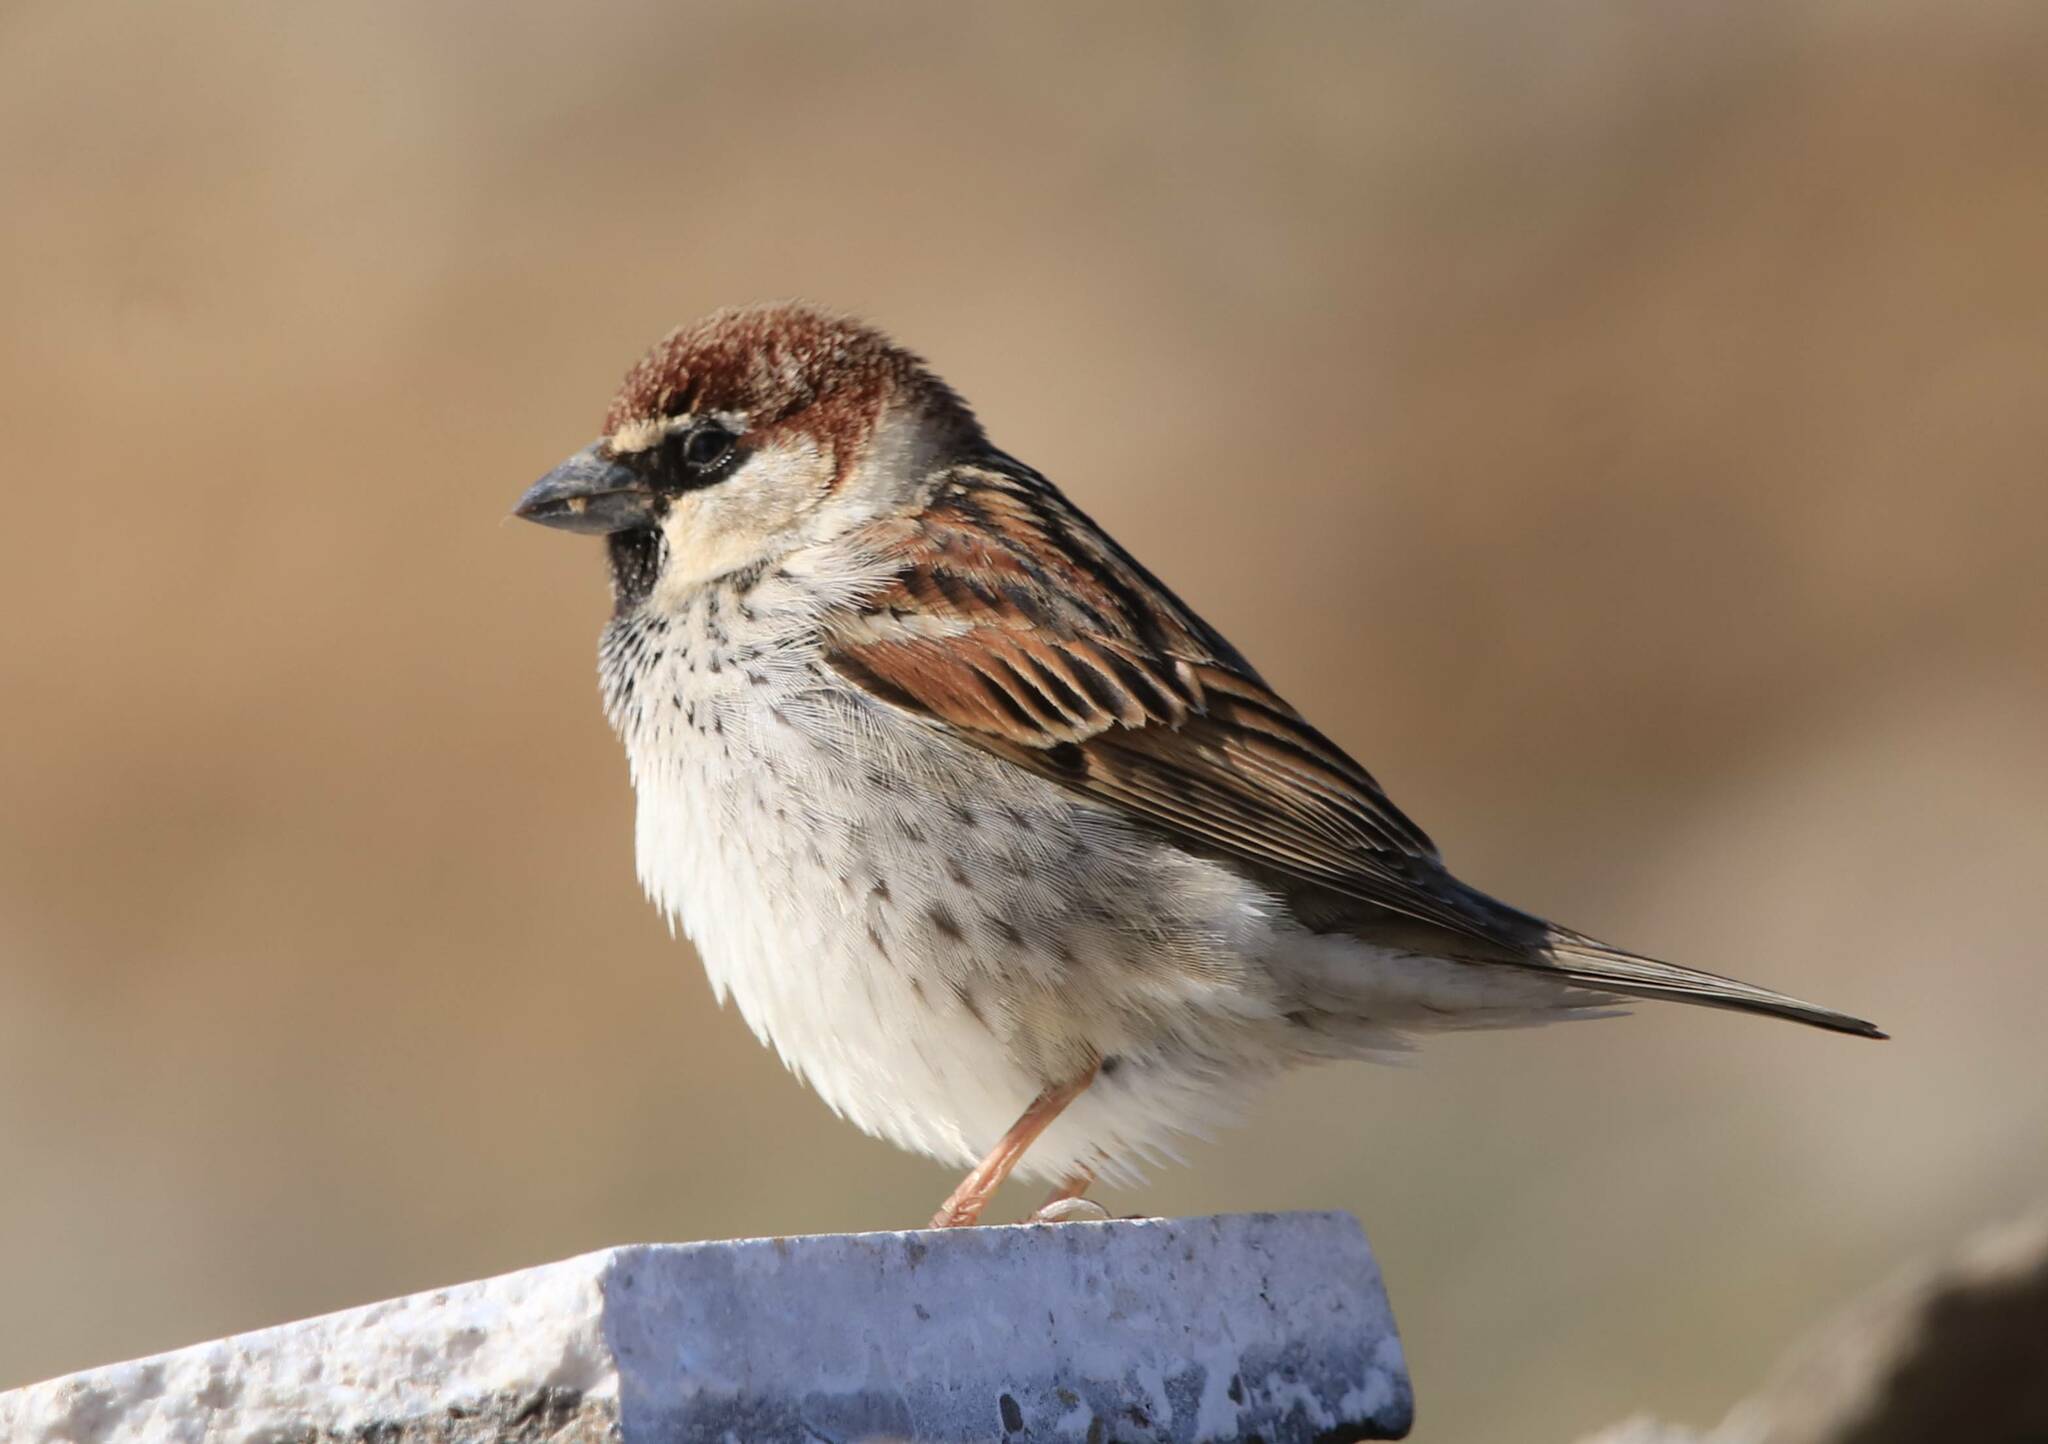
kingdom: Animalia
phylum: Chordata
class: Aves
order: Passeriformes
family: Passeridae
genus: Passer
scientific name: Passer hispaniolensis
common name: Spanish sparrow
